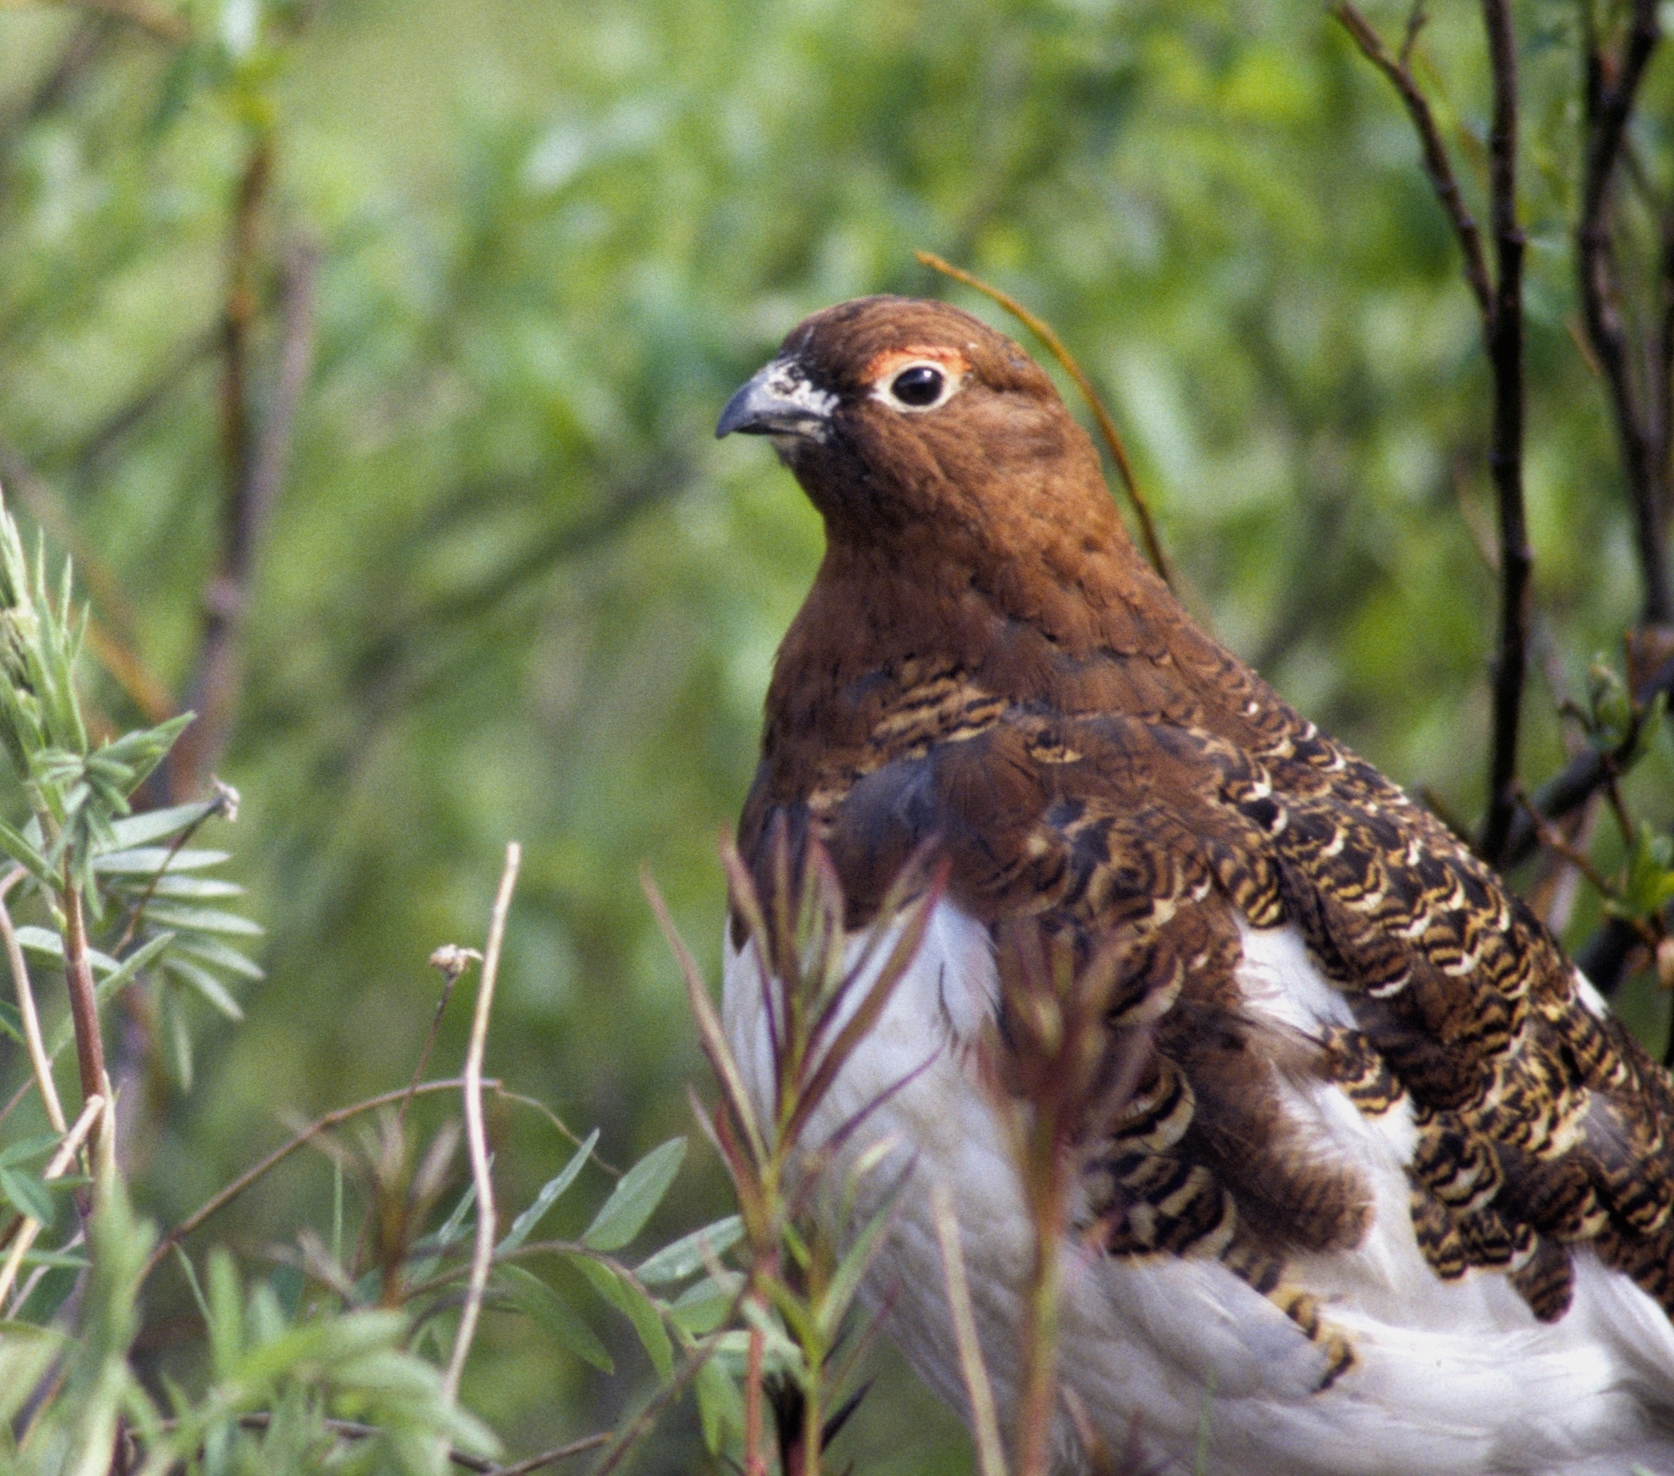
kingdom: Animalia
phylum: Chordata
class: Aves
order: Galliformes
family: Phasianidae
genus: Lagopus
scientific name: Lagopus lagopus
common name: Willow ptarmigan
